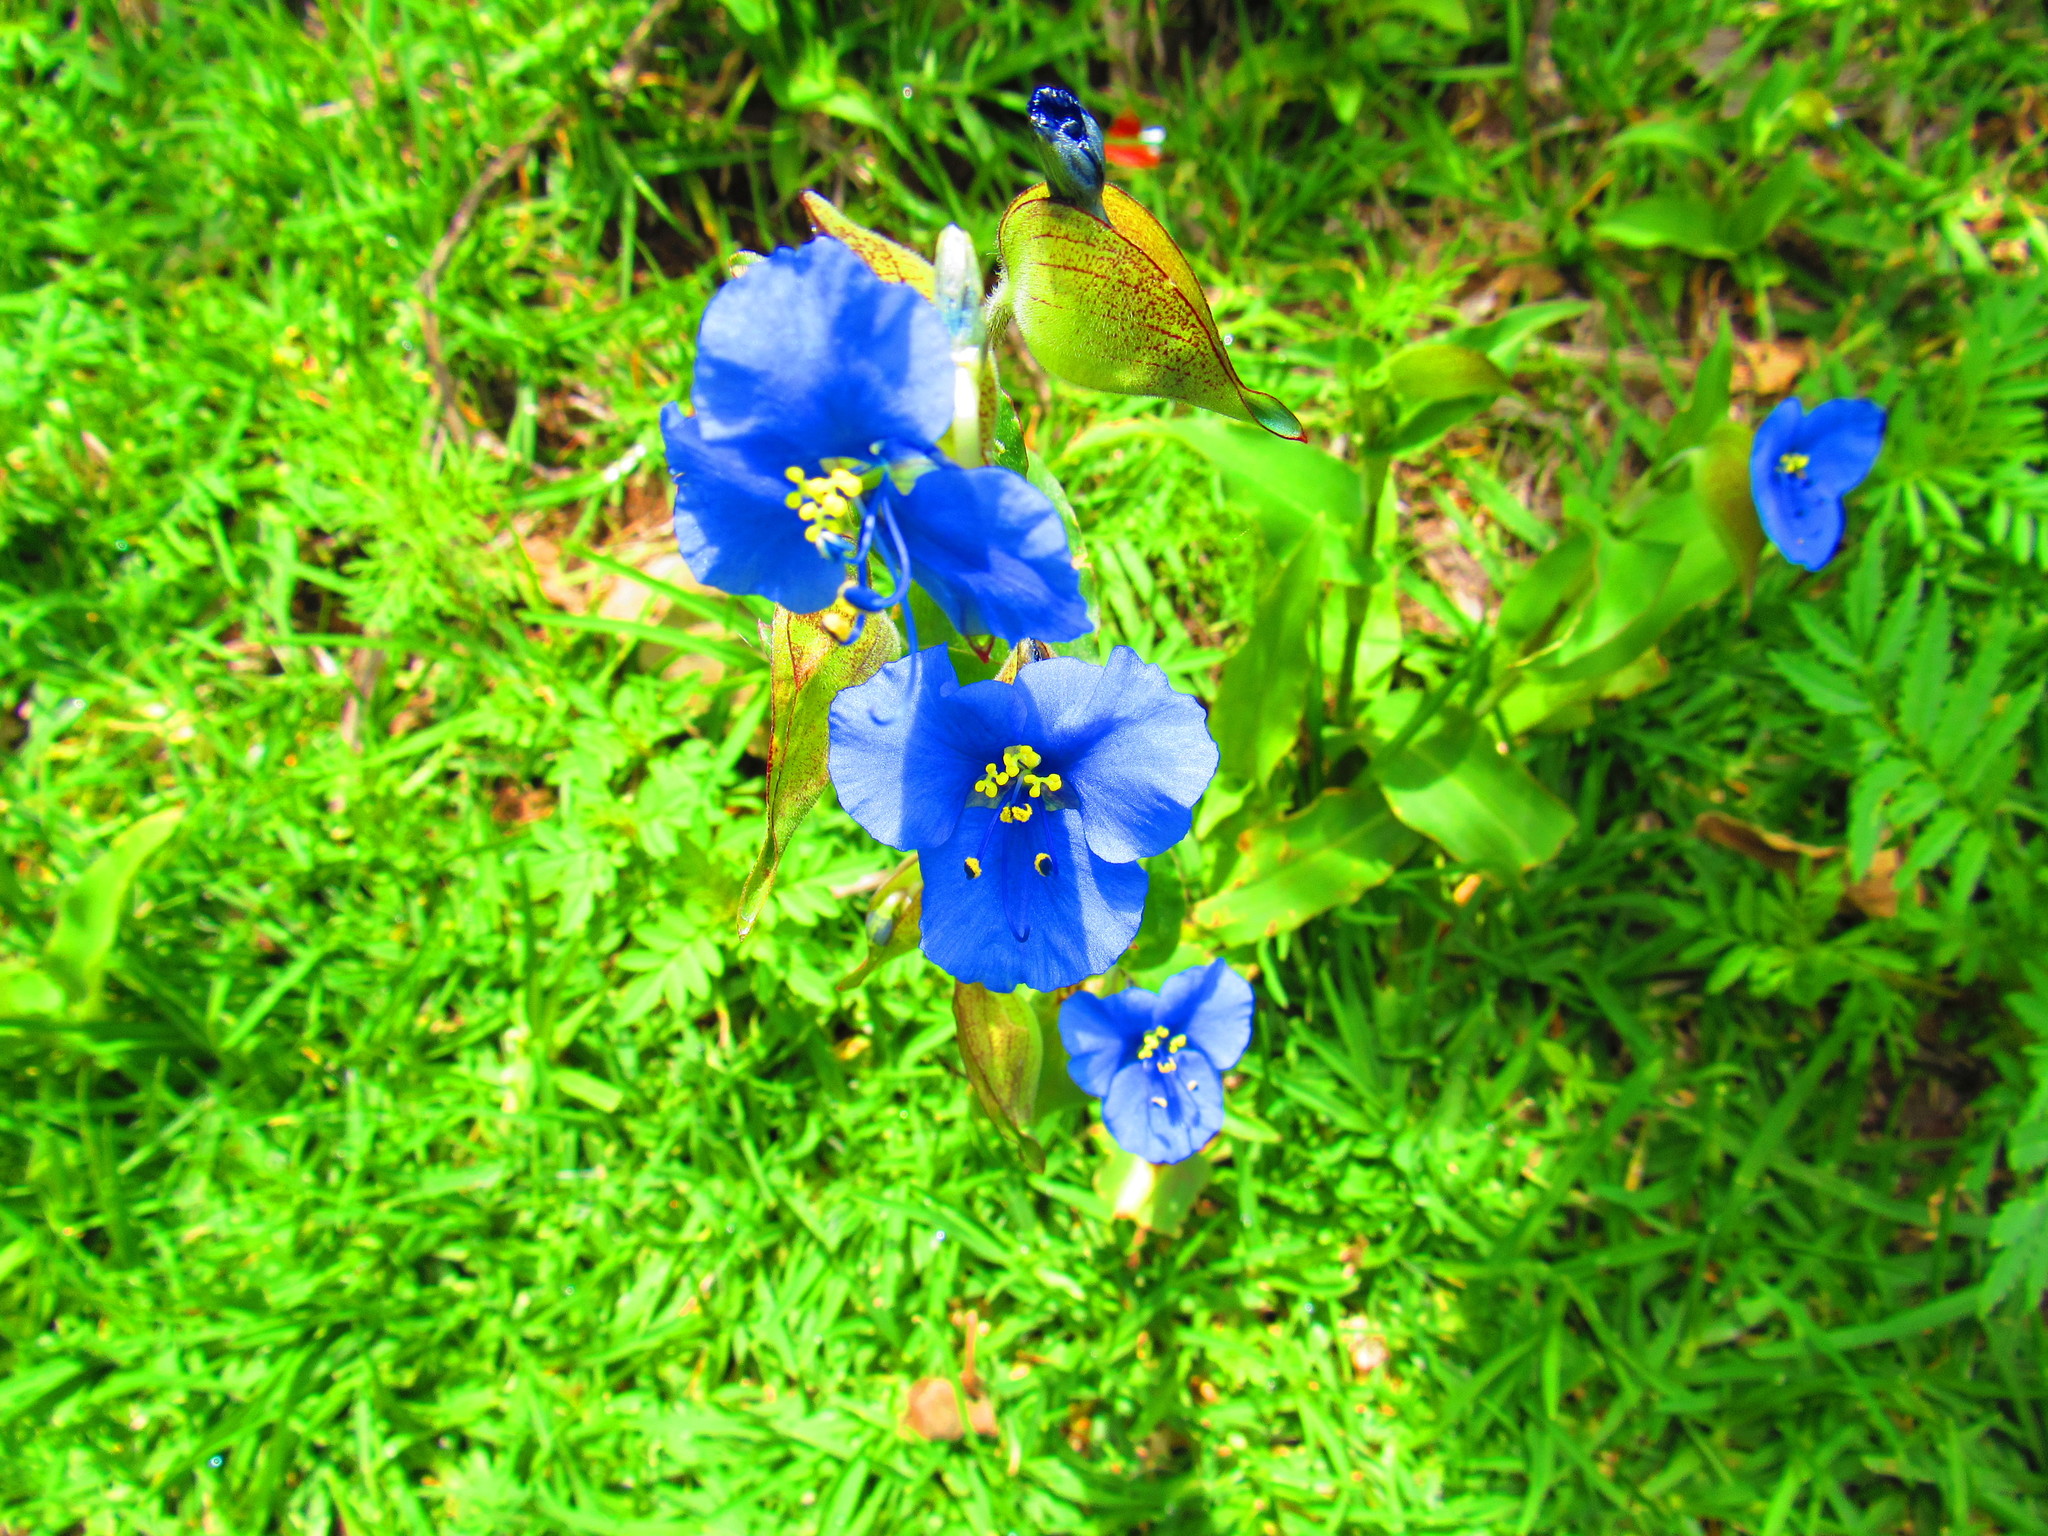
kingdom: Plantae
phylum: Tracheophyta
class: Liliopsida
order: Commelinales
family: Commelinaceae
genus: Commelina
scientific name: Commelina tuberosa
